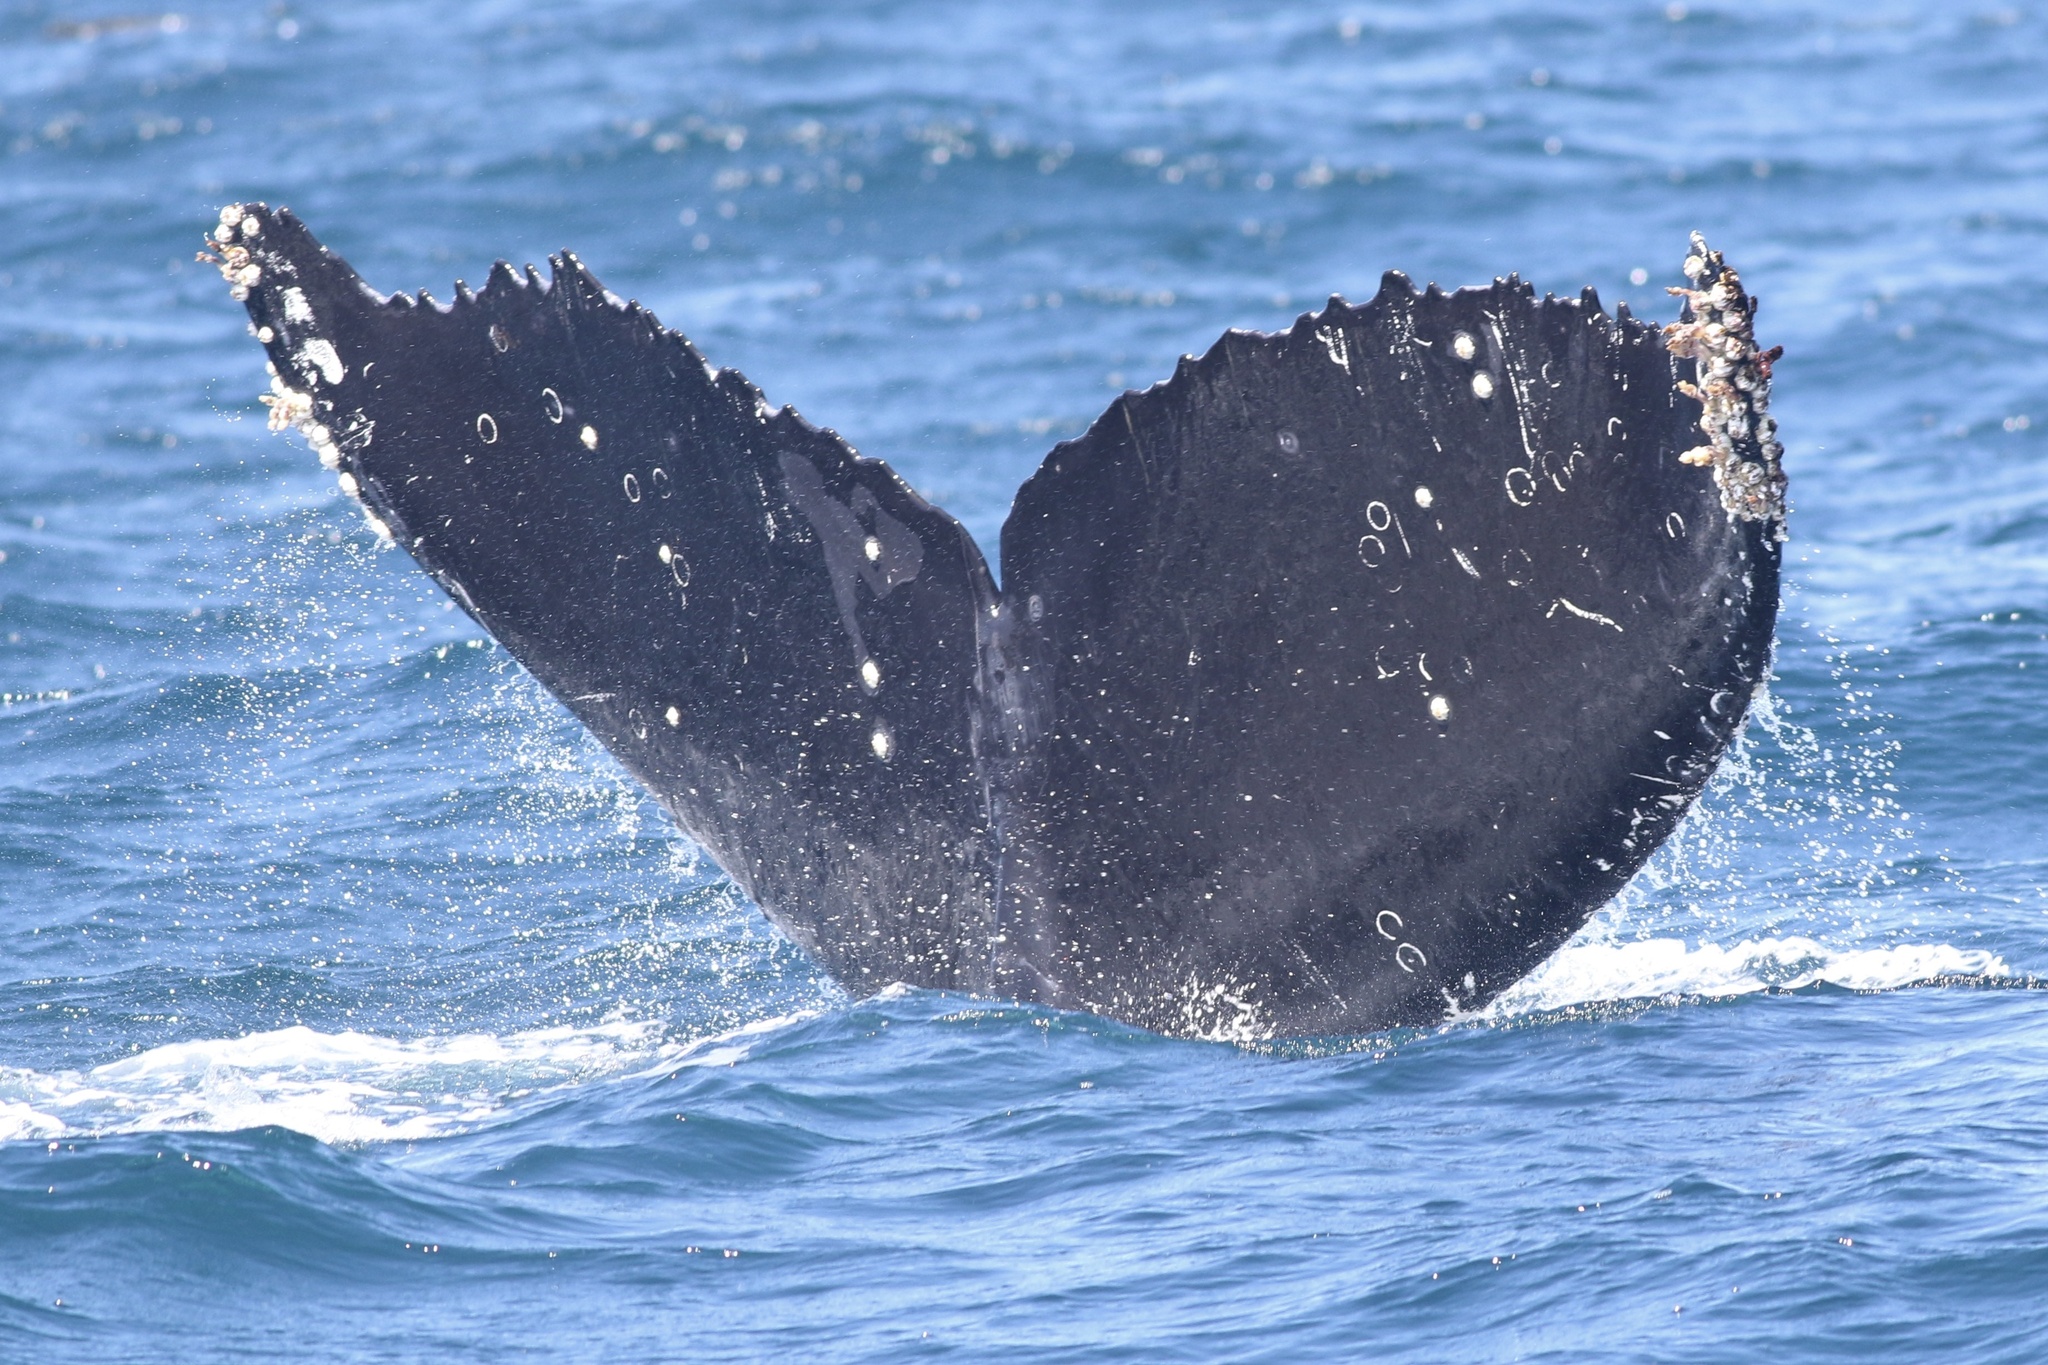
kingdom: Animalia
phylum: Chordata
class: Mammalia
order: Cetacea
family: Balaenopteridae
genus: Megaptera
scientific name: Megaptera novaeangliae
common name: Humpback whale
